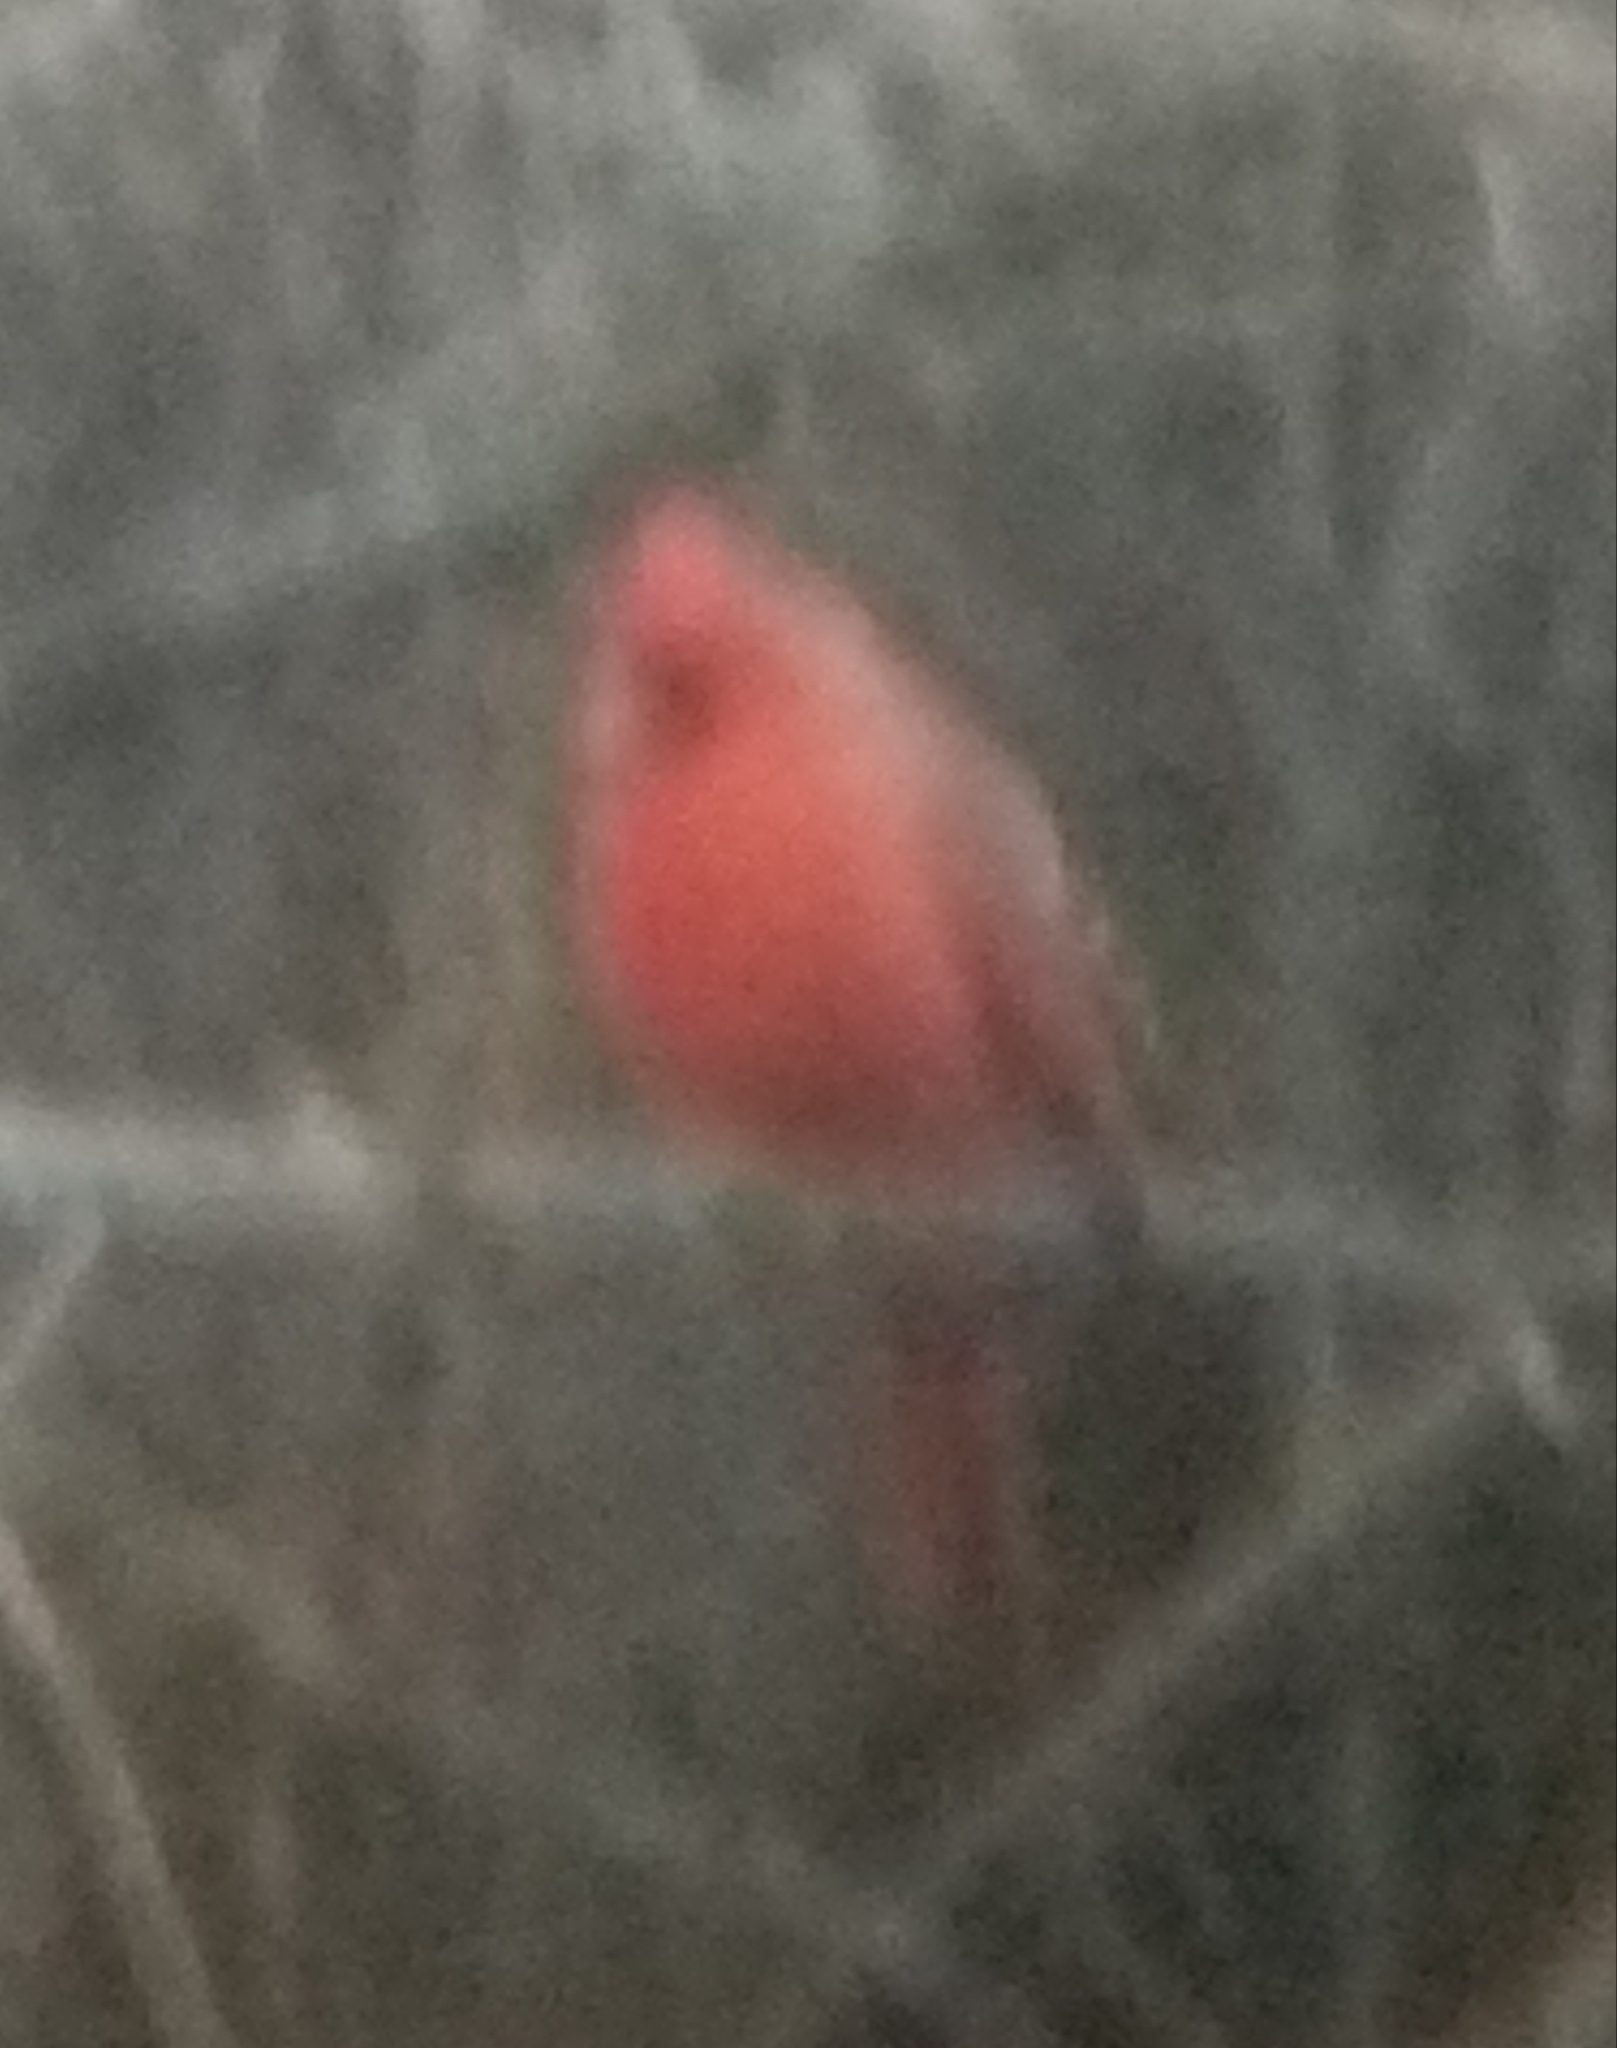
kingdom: Animalia
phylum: Chordata
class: Aves
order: Passeriformes
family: Cardinalidae
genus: Cardinalis
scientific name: Cardinalis cardinalis
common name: Northern cardinal
